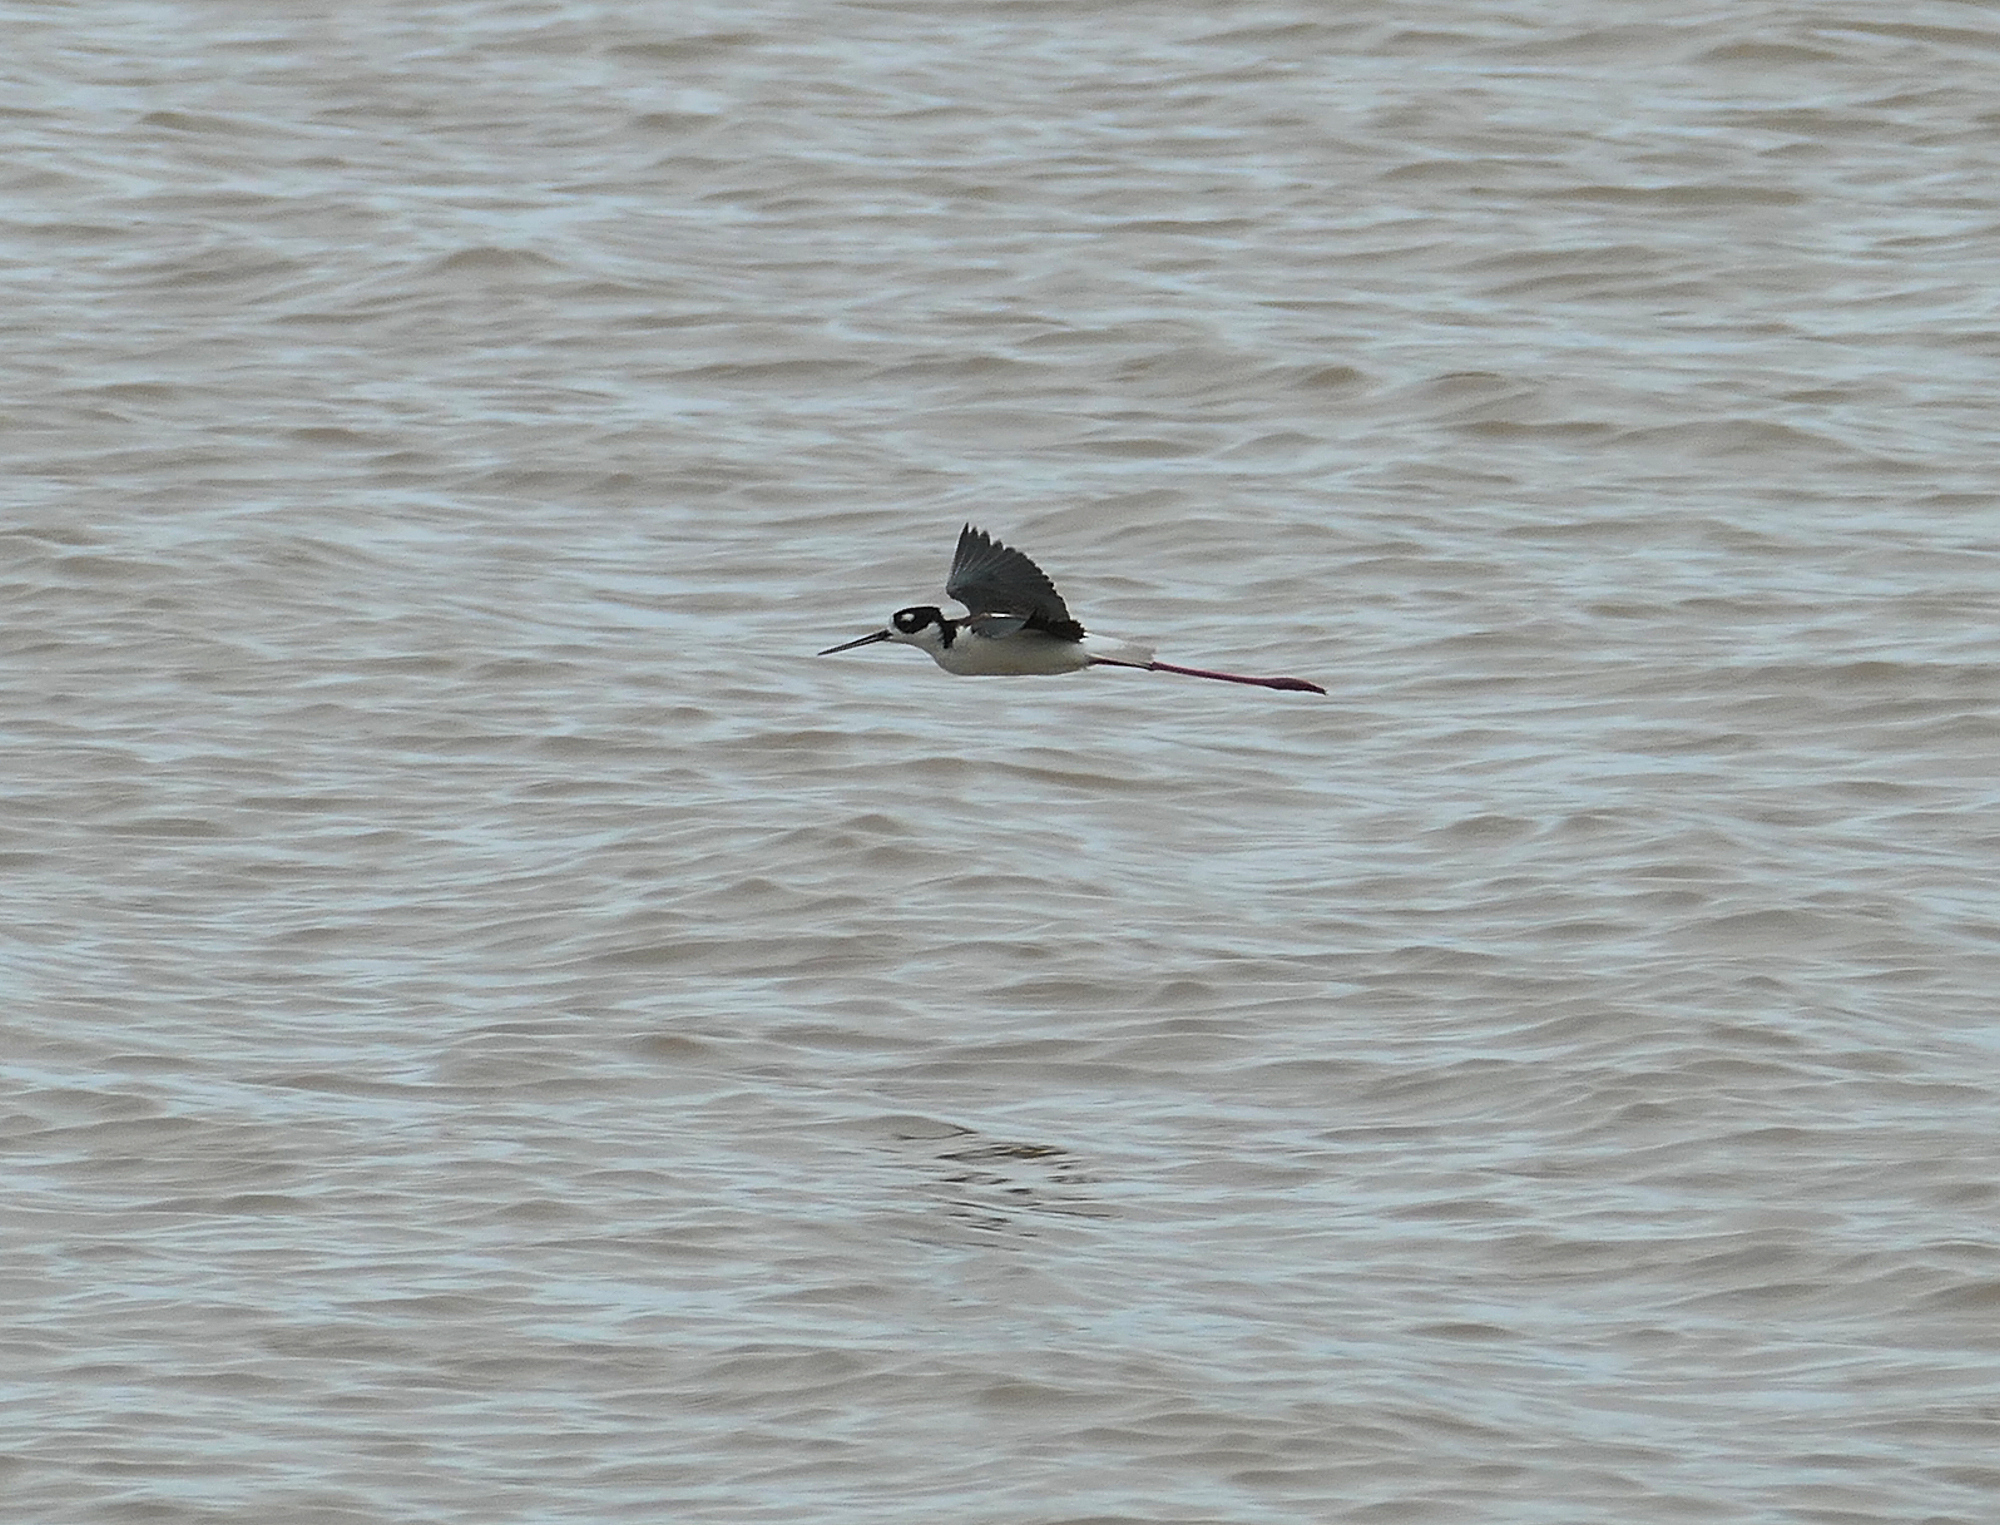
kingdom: Animalia
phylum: Chordata
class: Aves
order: Charadriiformes
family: Recurvirostridae
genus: Himantopus
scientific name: Himantopus mexicanus
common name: Black-necked stilt
